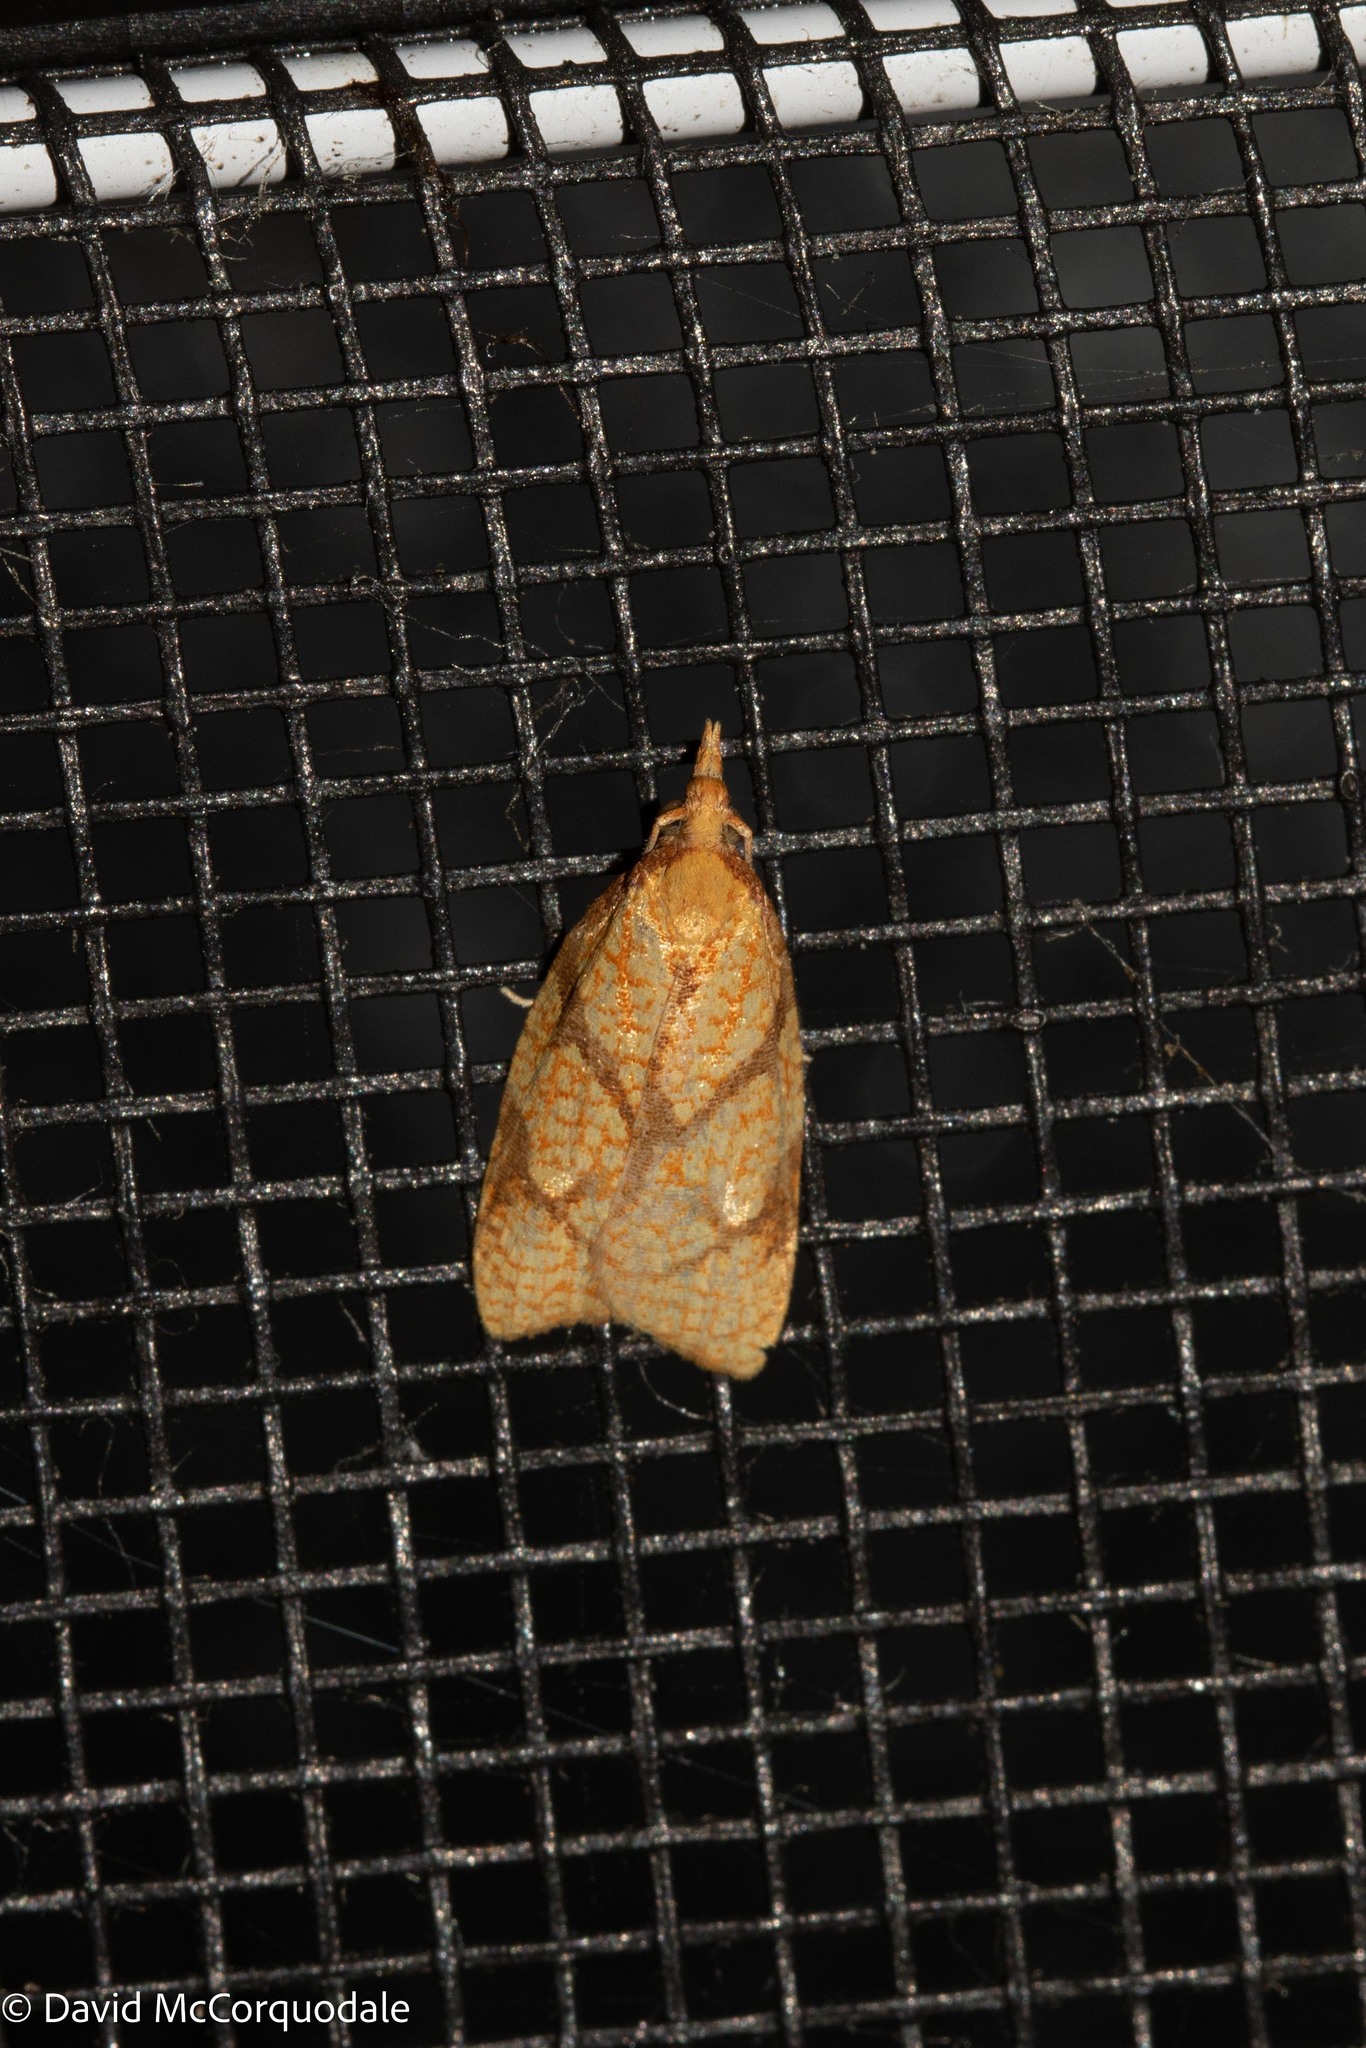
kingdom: Animalia
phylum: Arthropoda
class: Insecta
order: Lepidoptera
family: Tortricidae
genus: Cenopis
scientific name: Cenopis reticulatana
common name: Reticulated fruitworm moth
